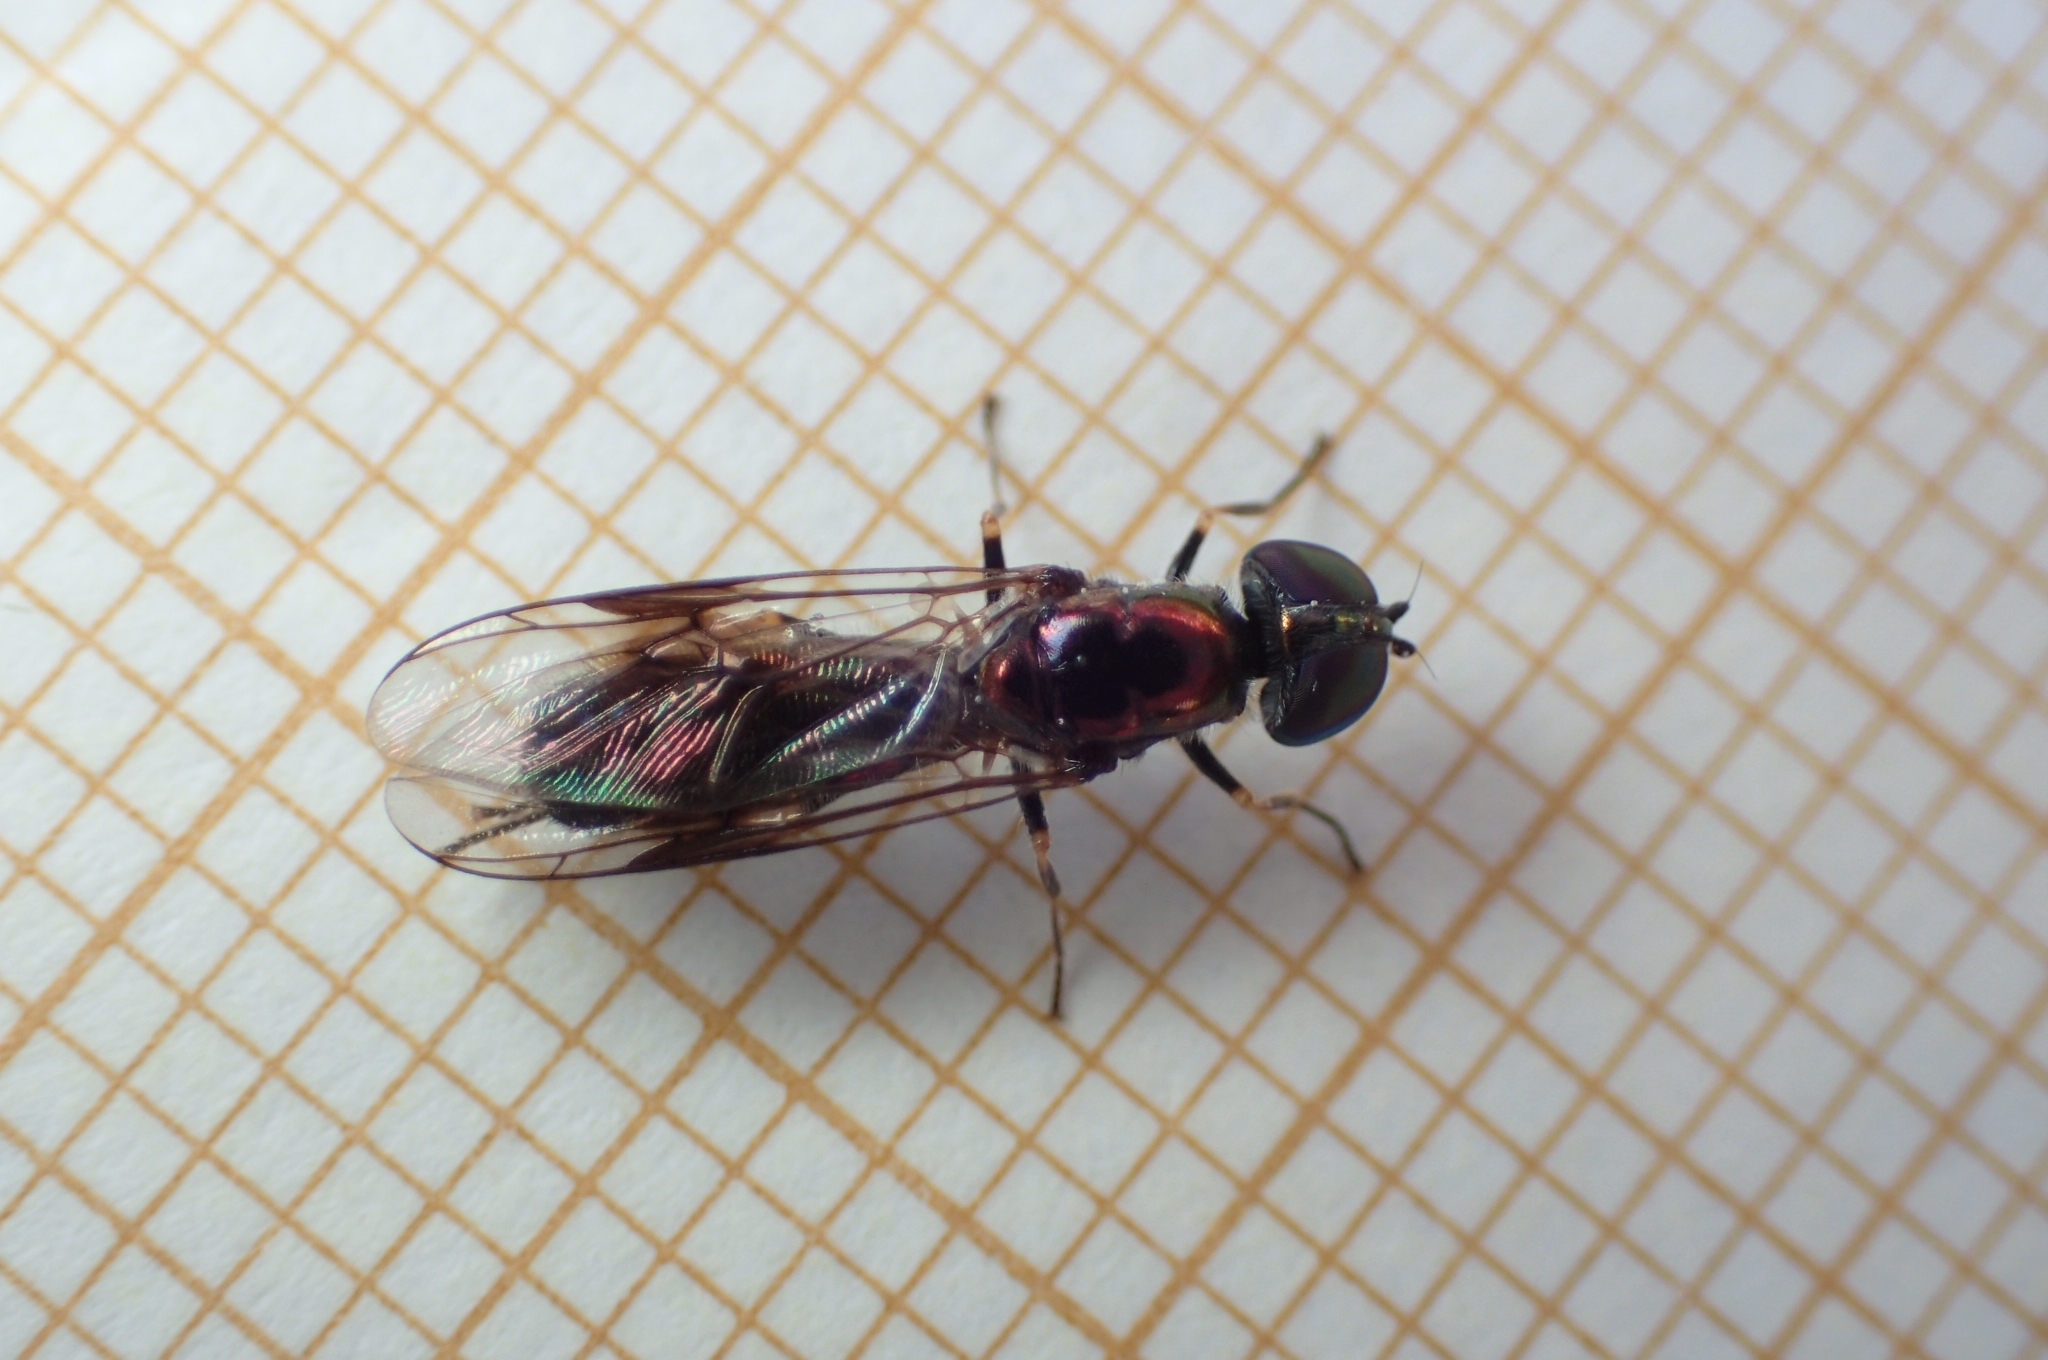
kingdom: Animalia
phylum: Arthropoda
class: Insecta
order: Diptera
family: Stratiomyidae
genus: Sargus
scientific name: Sargus cuprarius
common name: Soldier fly
